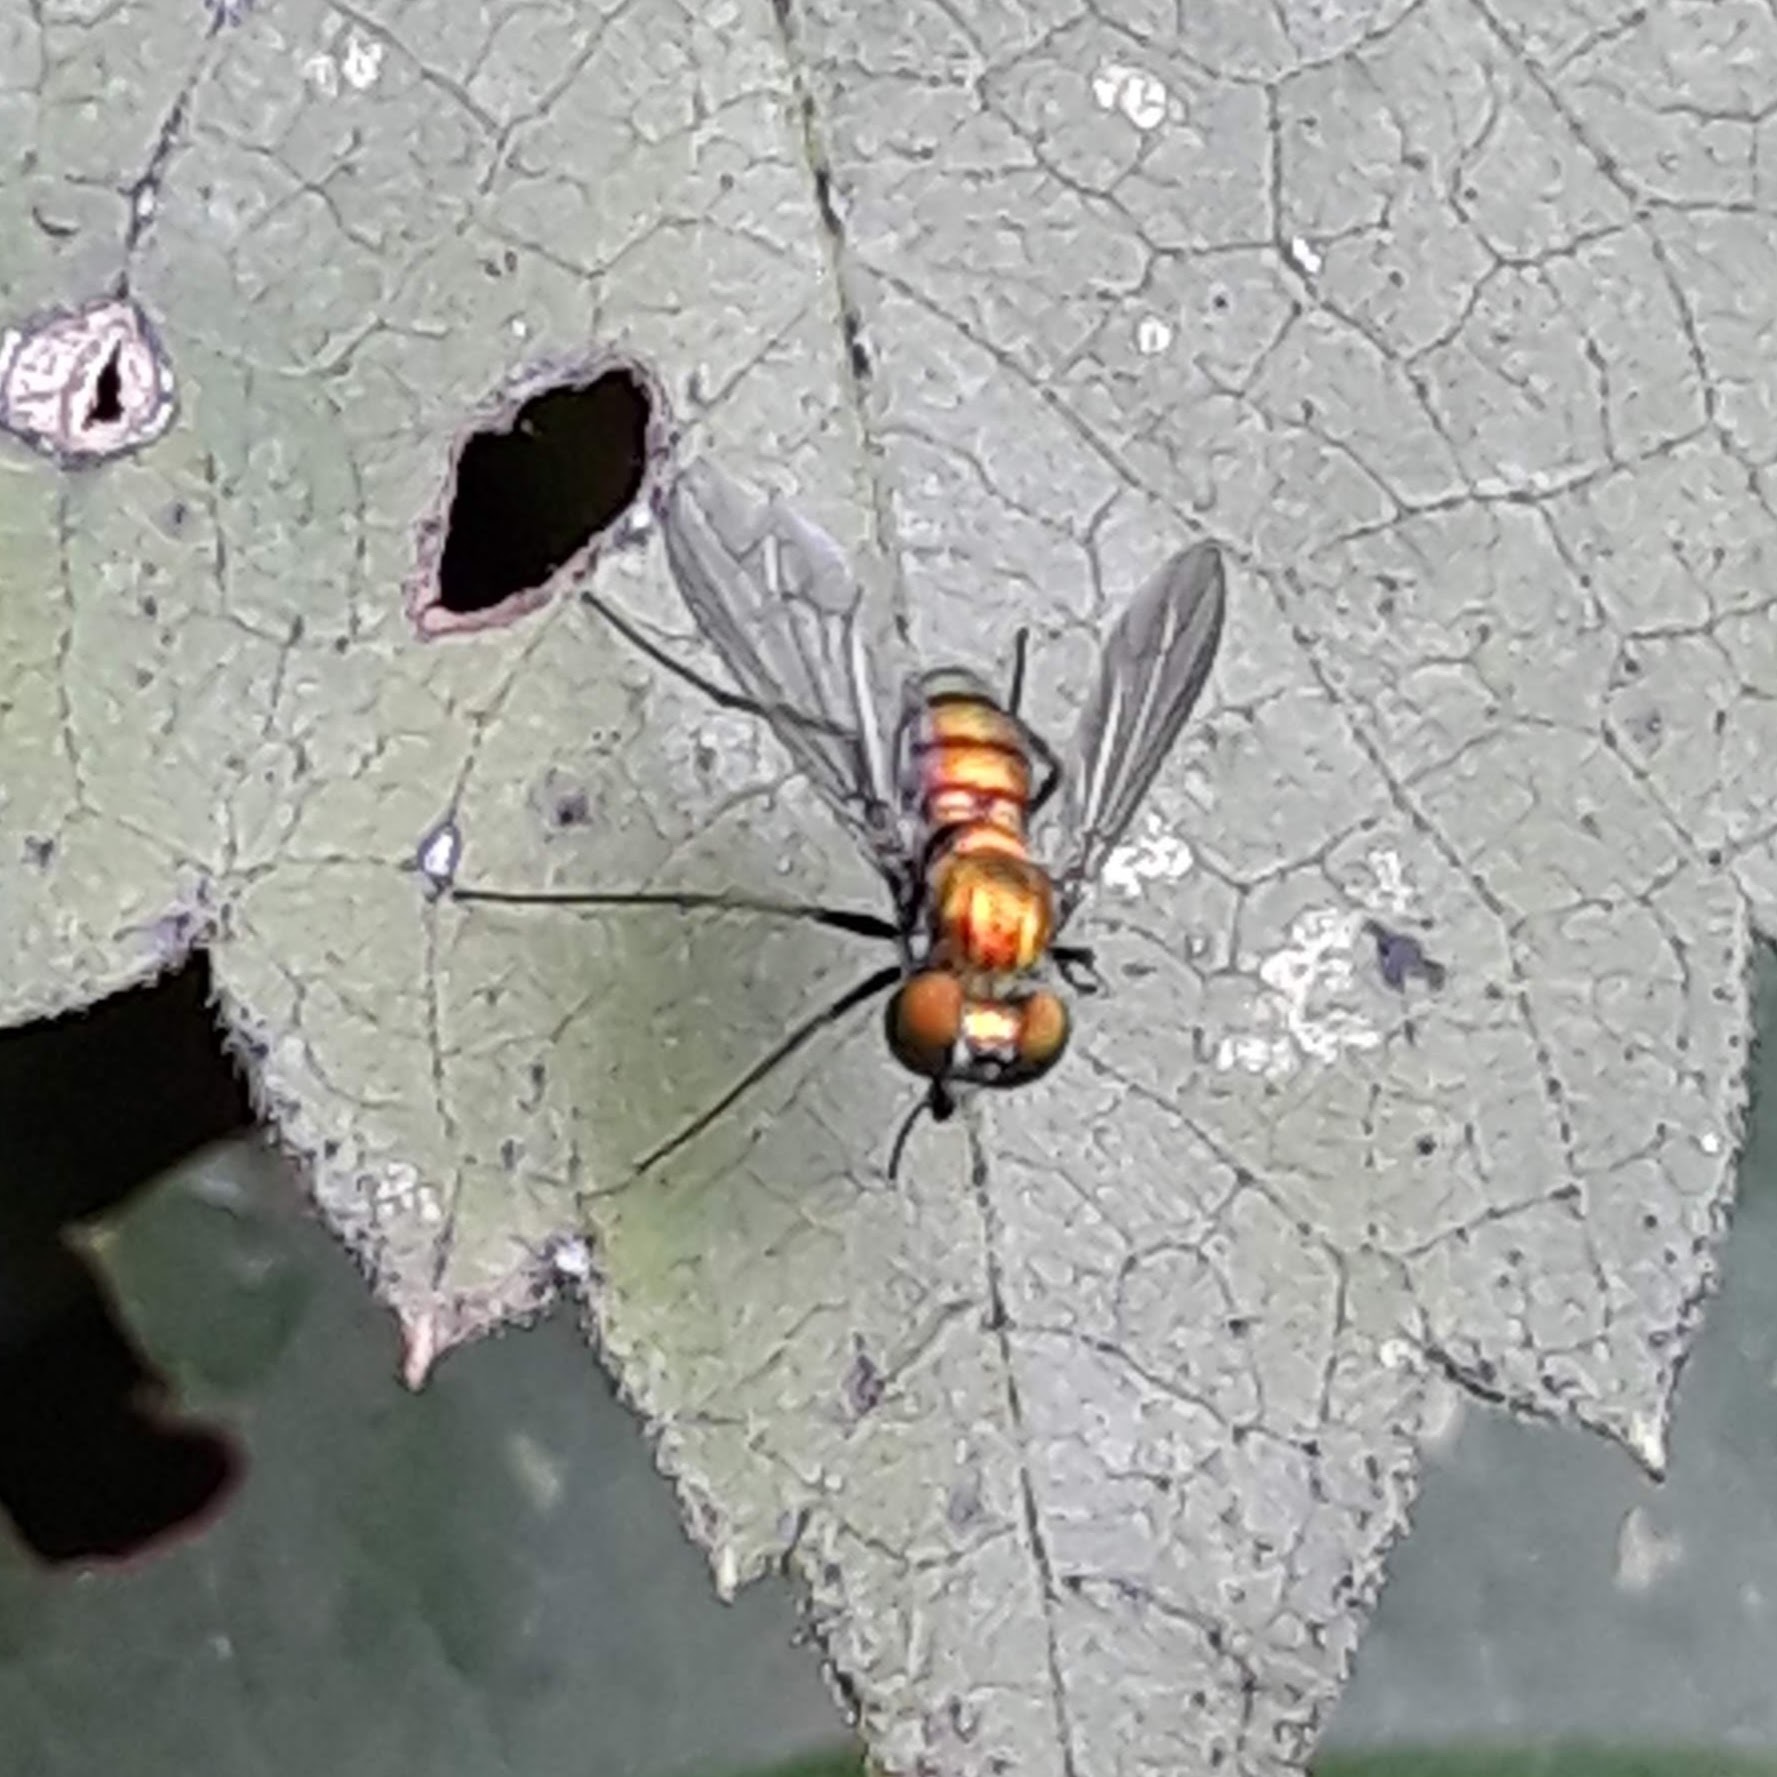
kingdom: Animalia
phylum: Arthropoda
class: Insecta
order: Diptera
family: Dolichopodidae
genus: Condylostylus
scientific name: Condylostylus
